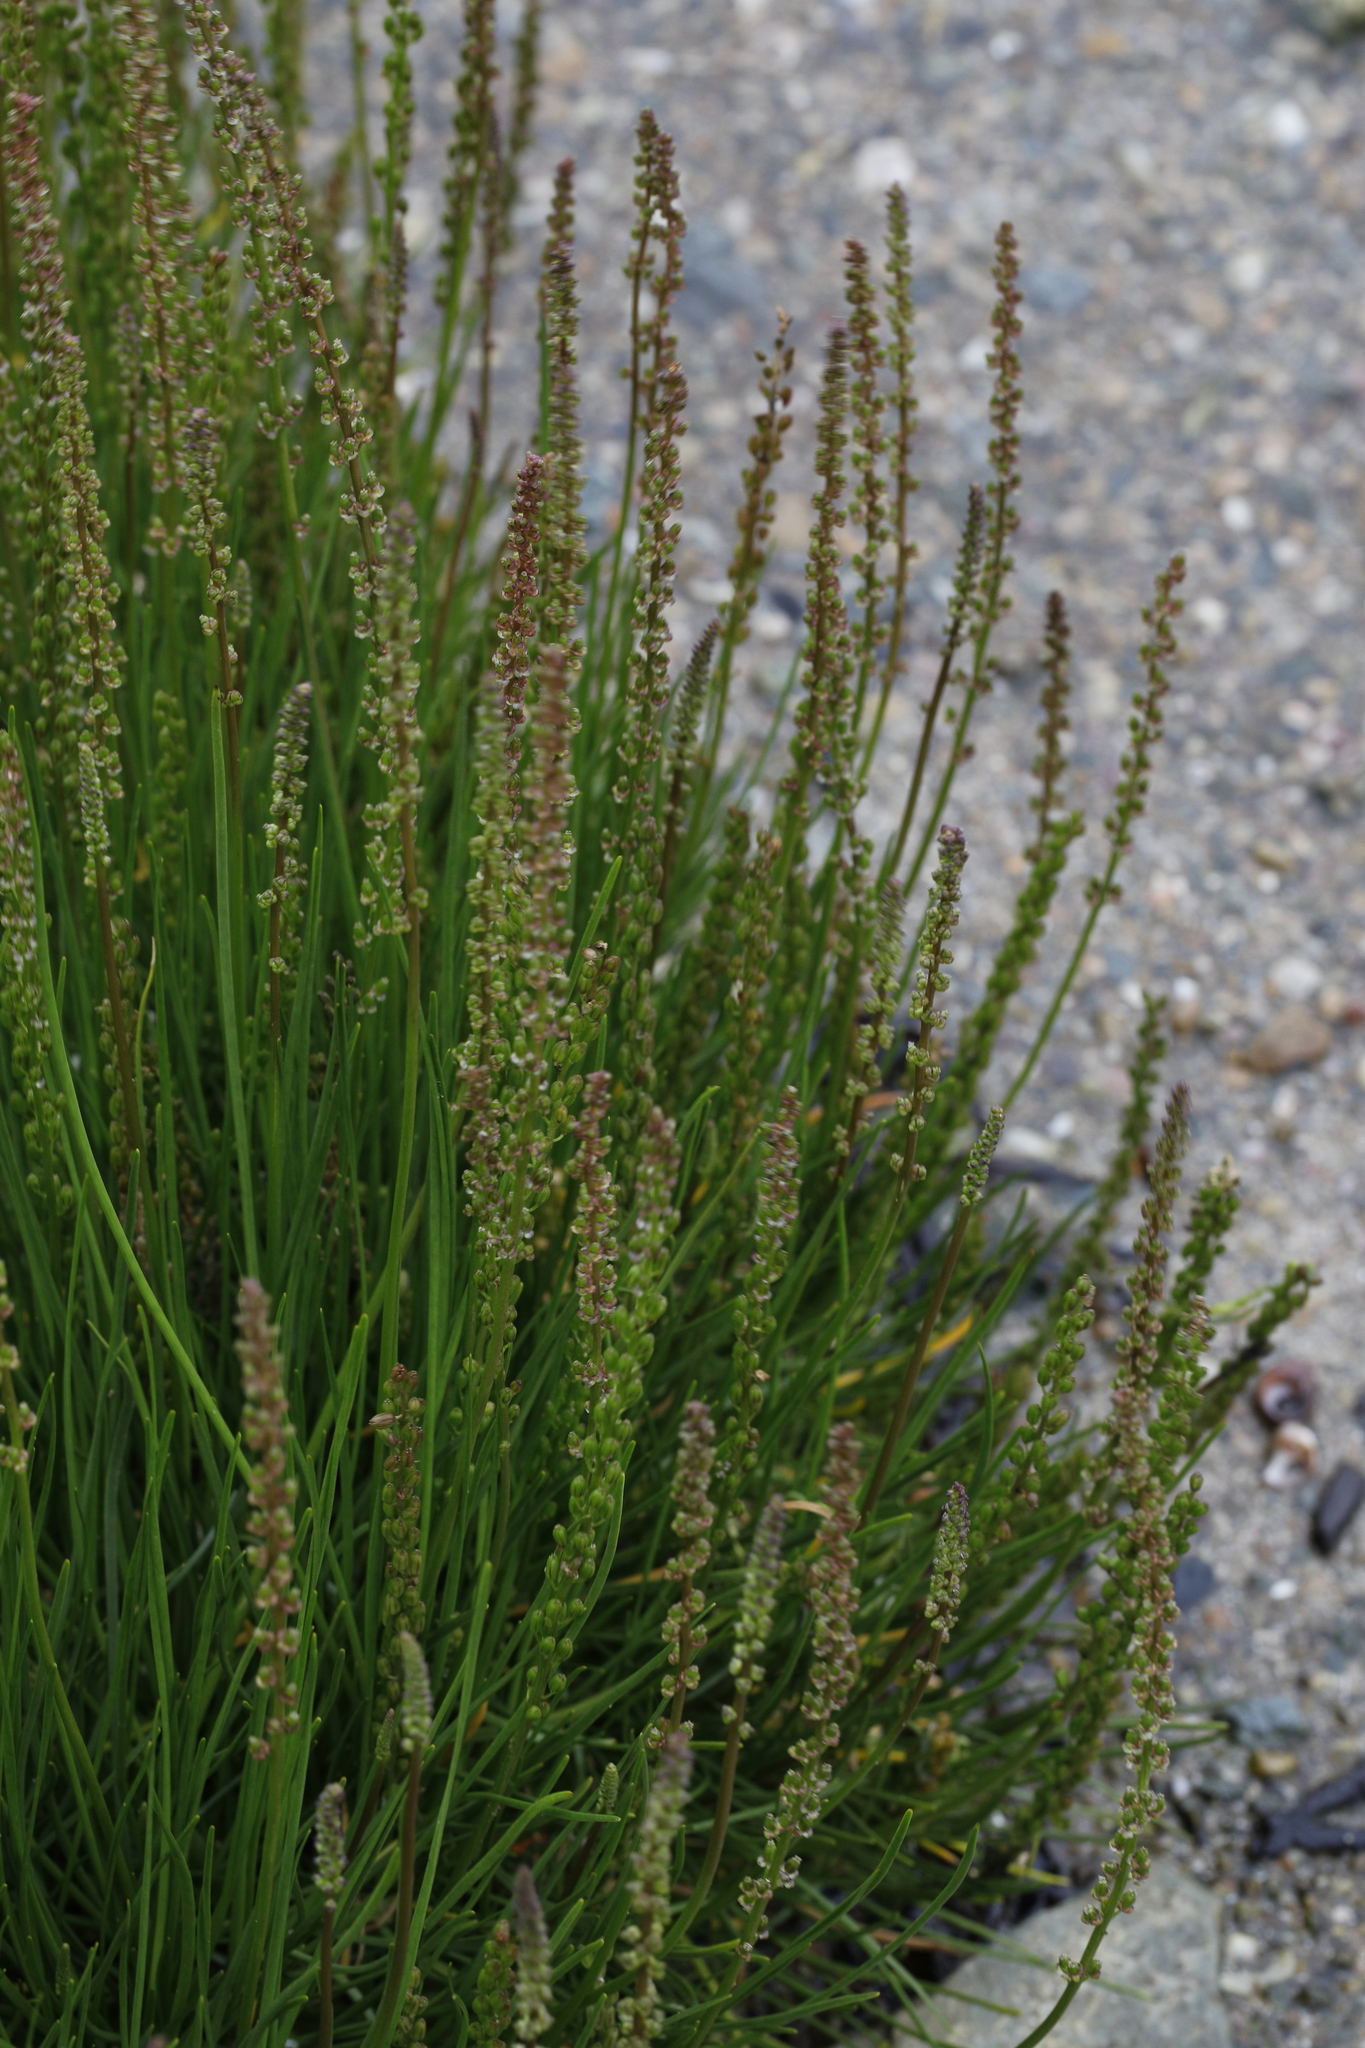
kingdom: Plantae
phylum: Tracheophyta
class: Liliopsida
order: Alismatales
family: Juncaginaceae
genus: Triglochin
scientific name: Triglochin maritima
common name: Sea arrowgrass
